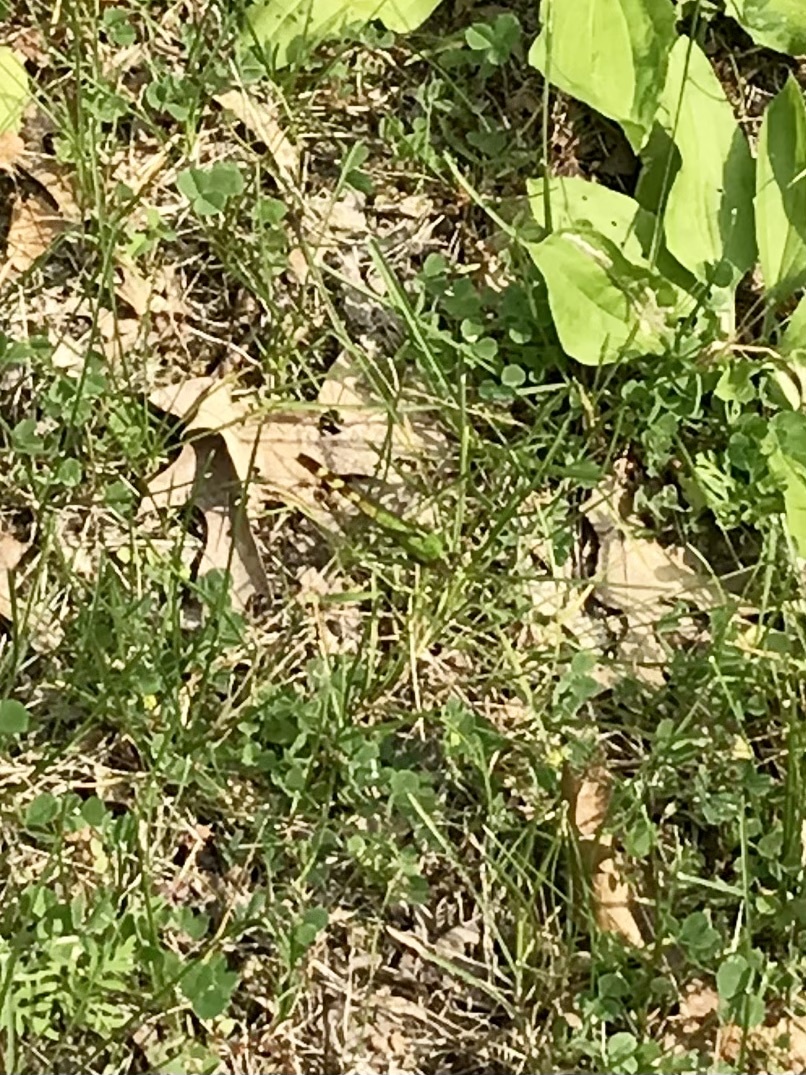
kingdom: Animalia
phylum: Arthropoda
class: Insecta
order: Odonata
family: Libellulidae
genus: Erythemis
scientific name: Erythemis simplicicollis
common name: Eastern pondhawk
